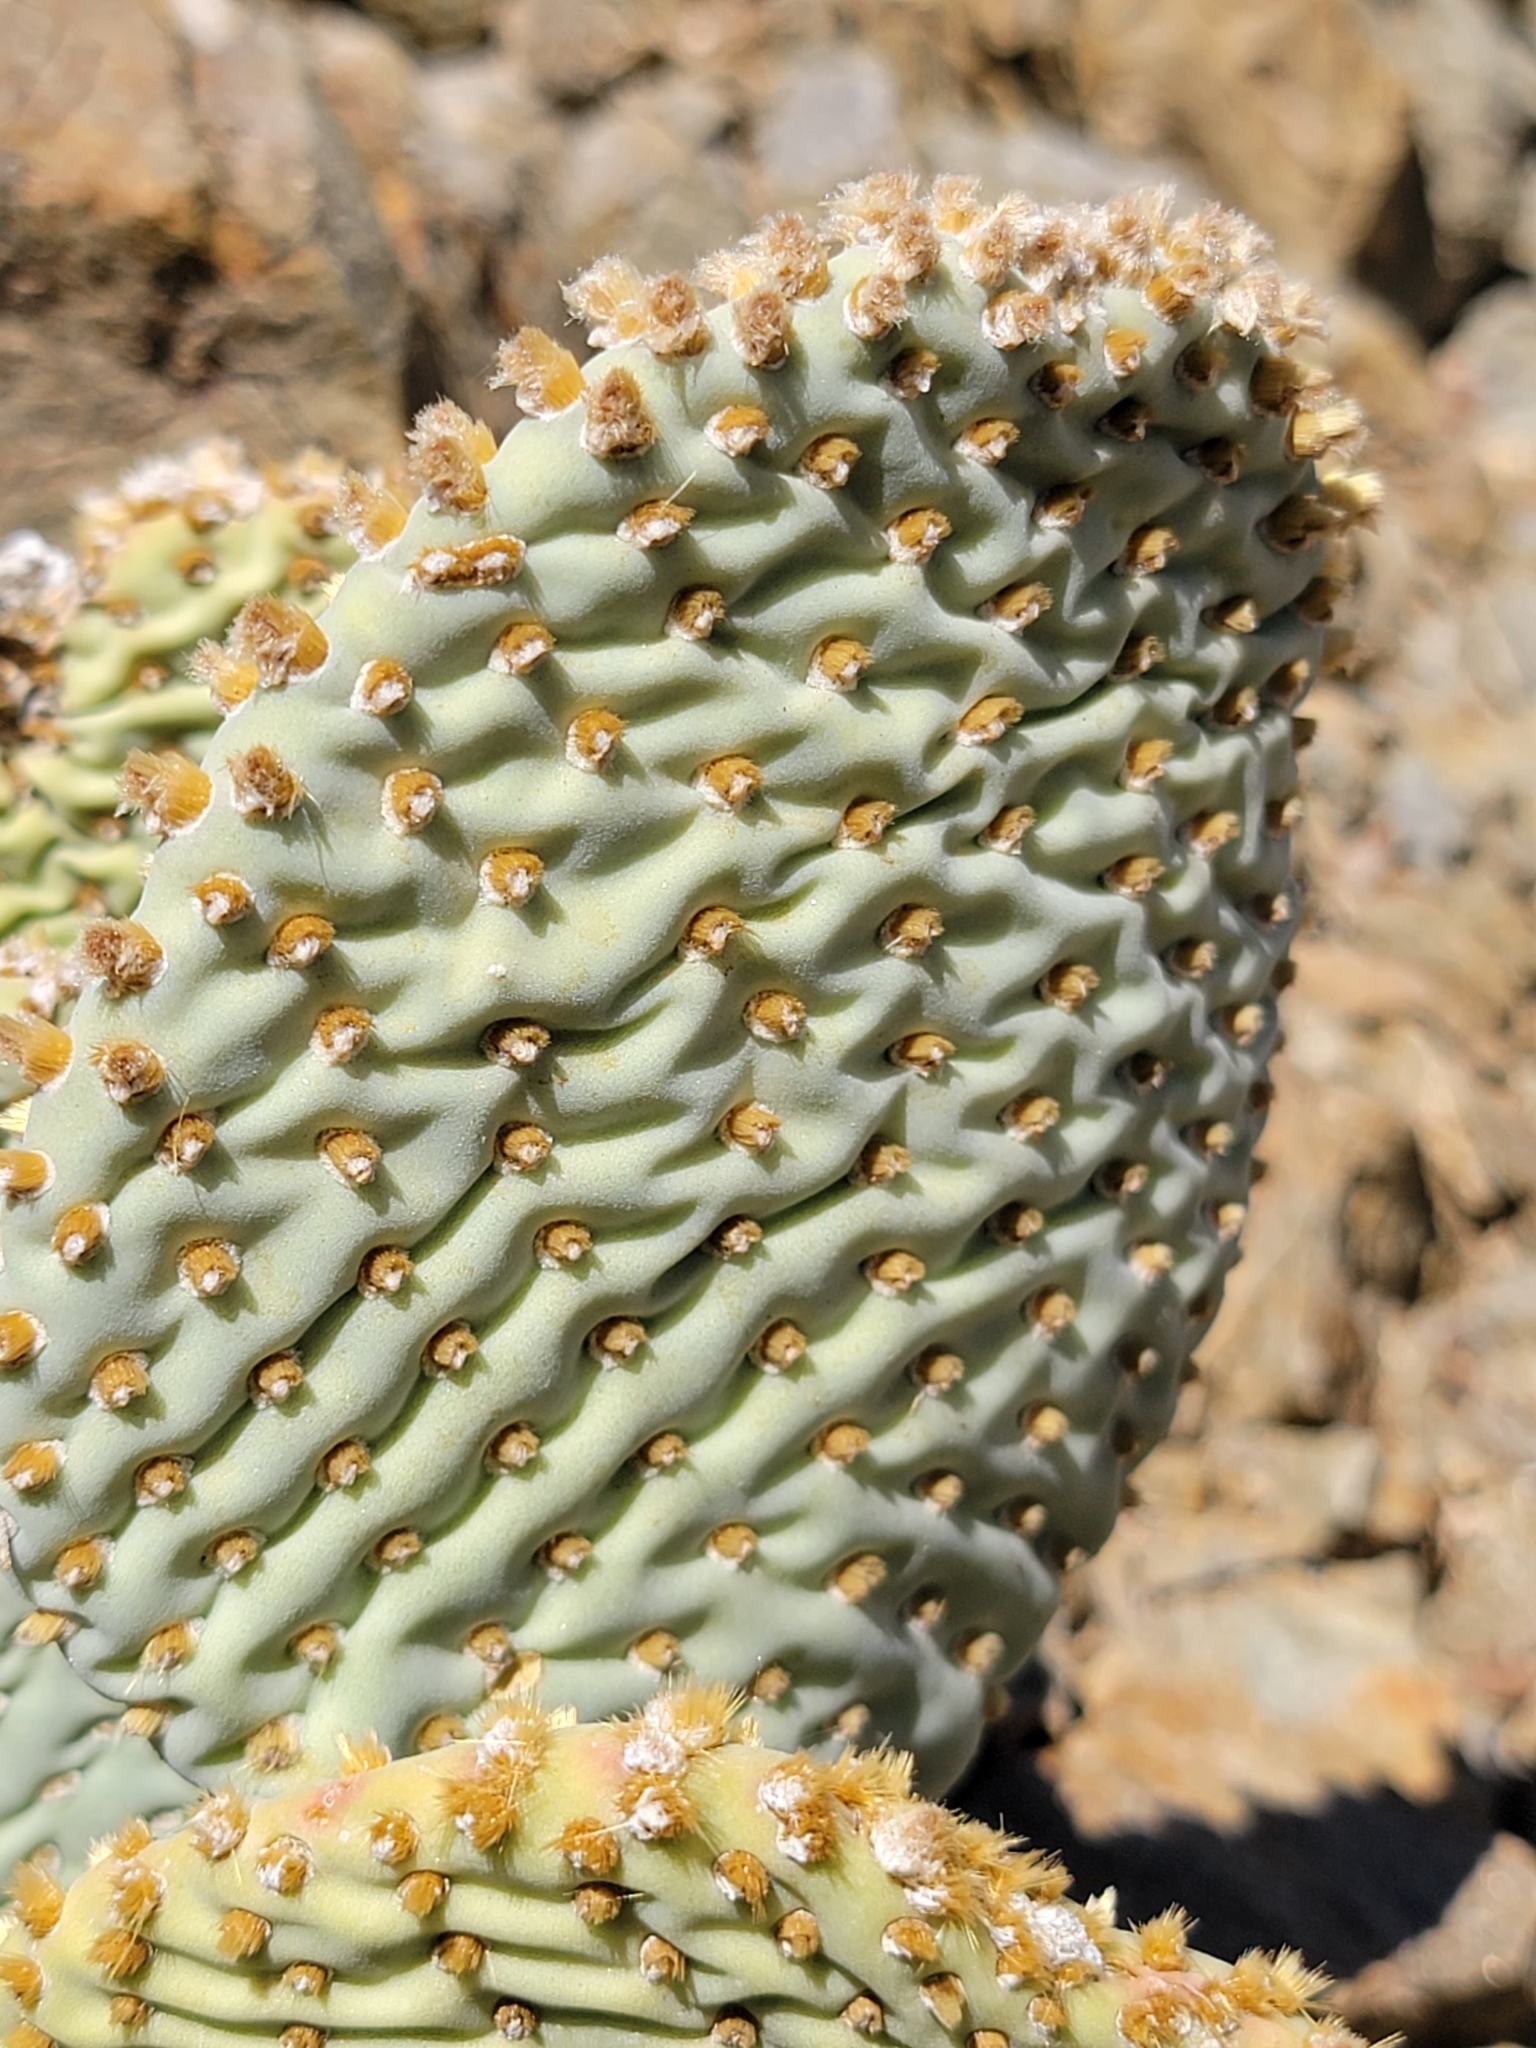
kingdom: Plantae
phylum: Tracheophyta
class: Magnoliopsida
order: Caryophyllales
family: Cactaceae
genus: Opuntia
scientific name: Opuntia basilaris
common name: Beavertail prickly-pear
